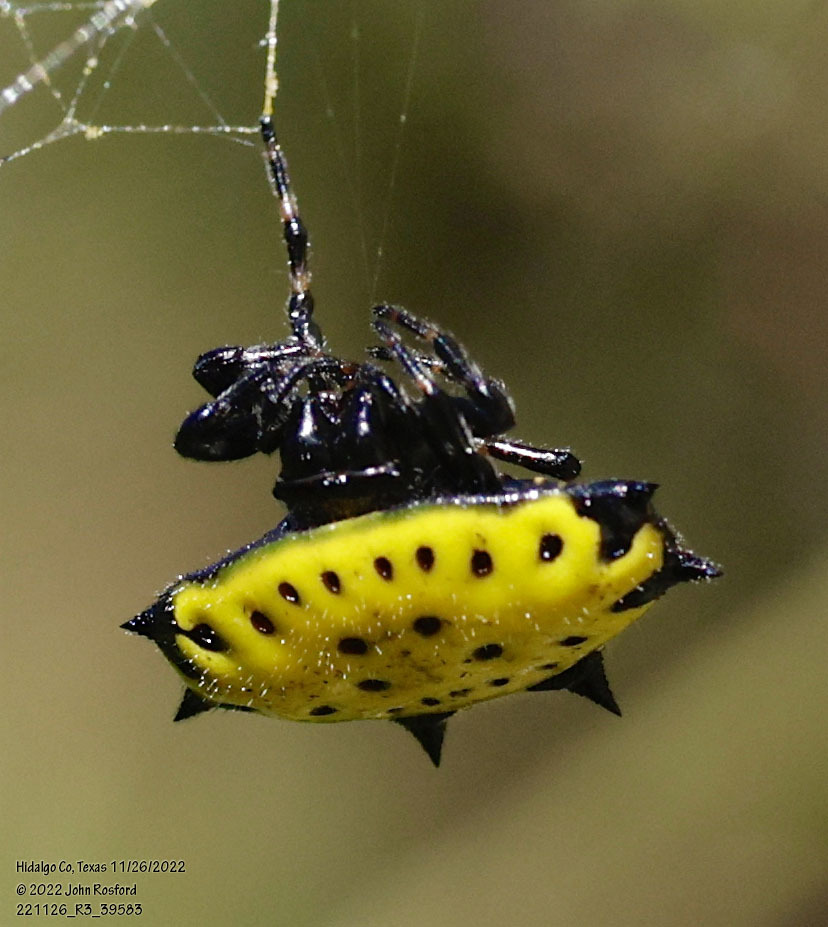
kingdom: Animalia
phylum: Arthropoda
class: Arachnida
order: Araneae
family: Araneidae
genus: Gasteracantha
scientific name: Gasteracantha cancriformis
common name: Orb weavers
